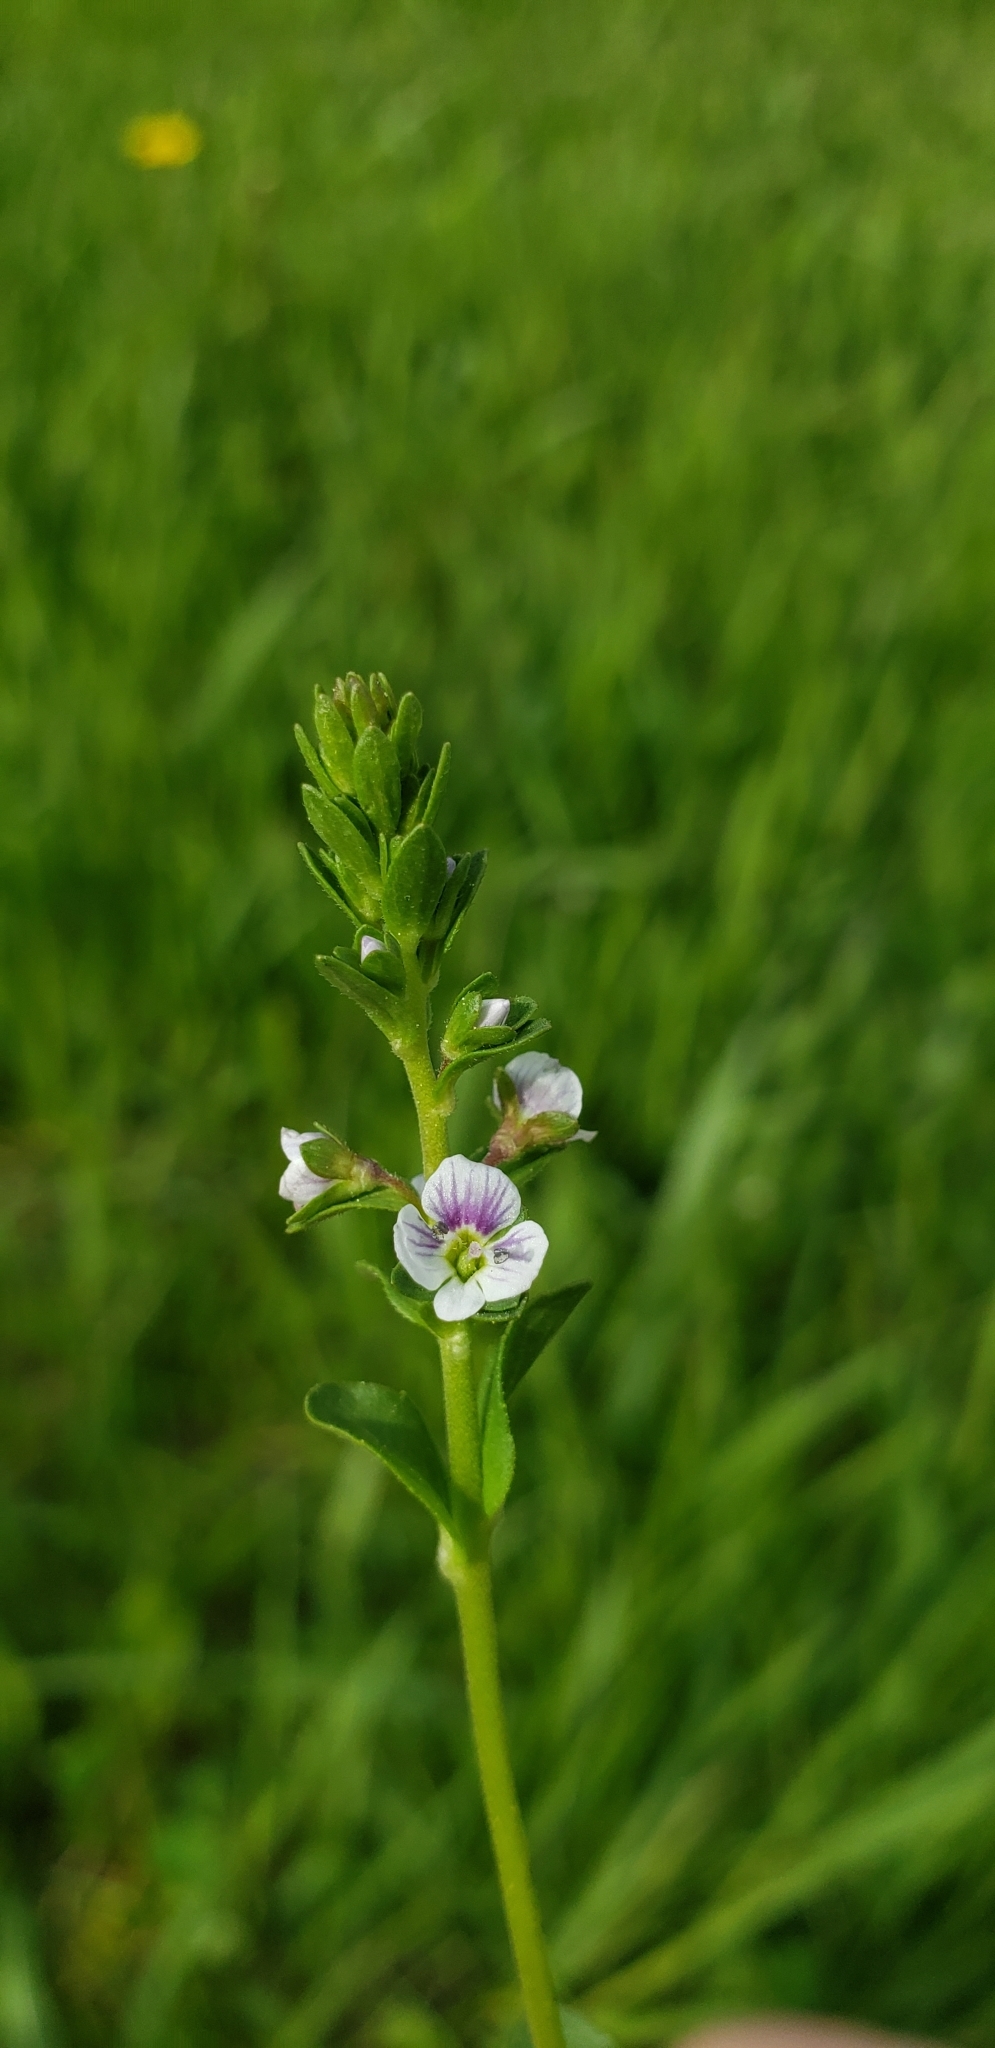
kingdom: Plantae
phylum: Tracheophyta
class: Magnoliopsida
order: Lamiales
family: Plantaginaceae
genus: Veronica
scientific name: Veronica serpyllifolia
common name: Thyme-leaved speedwell
